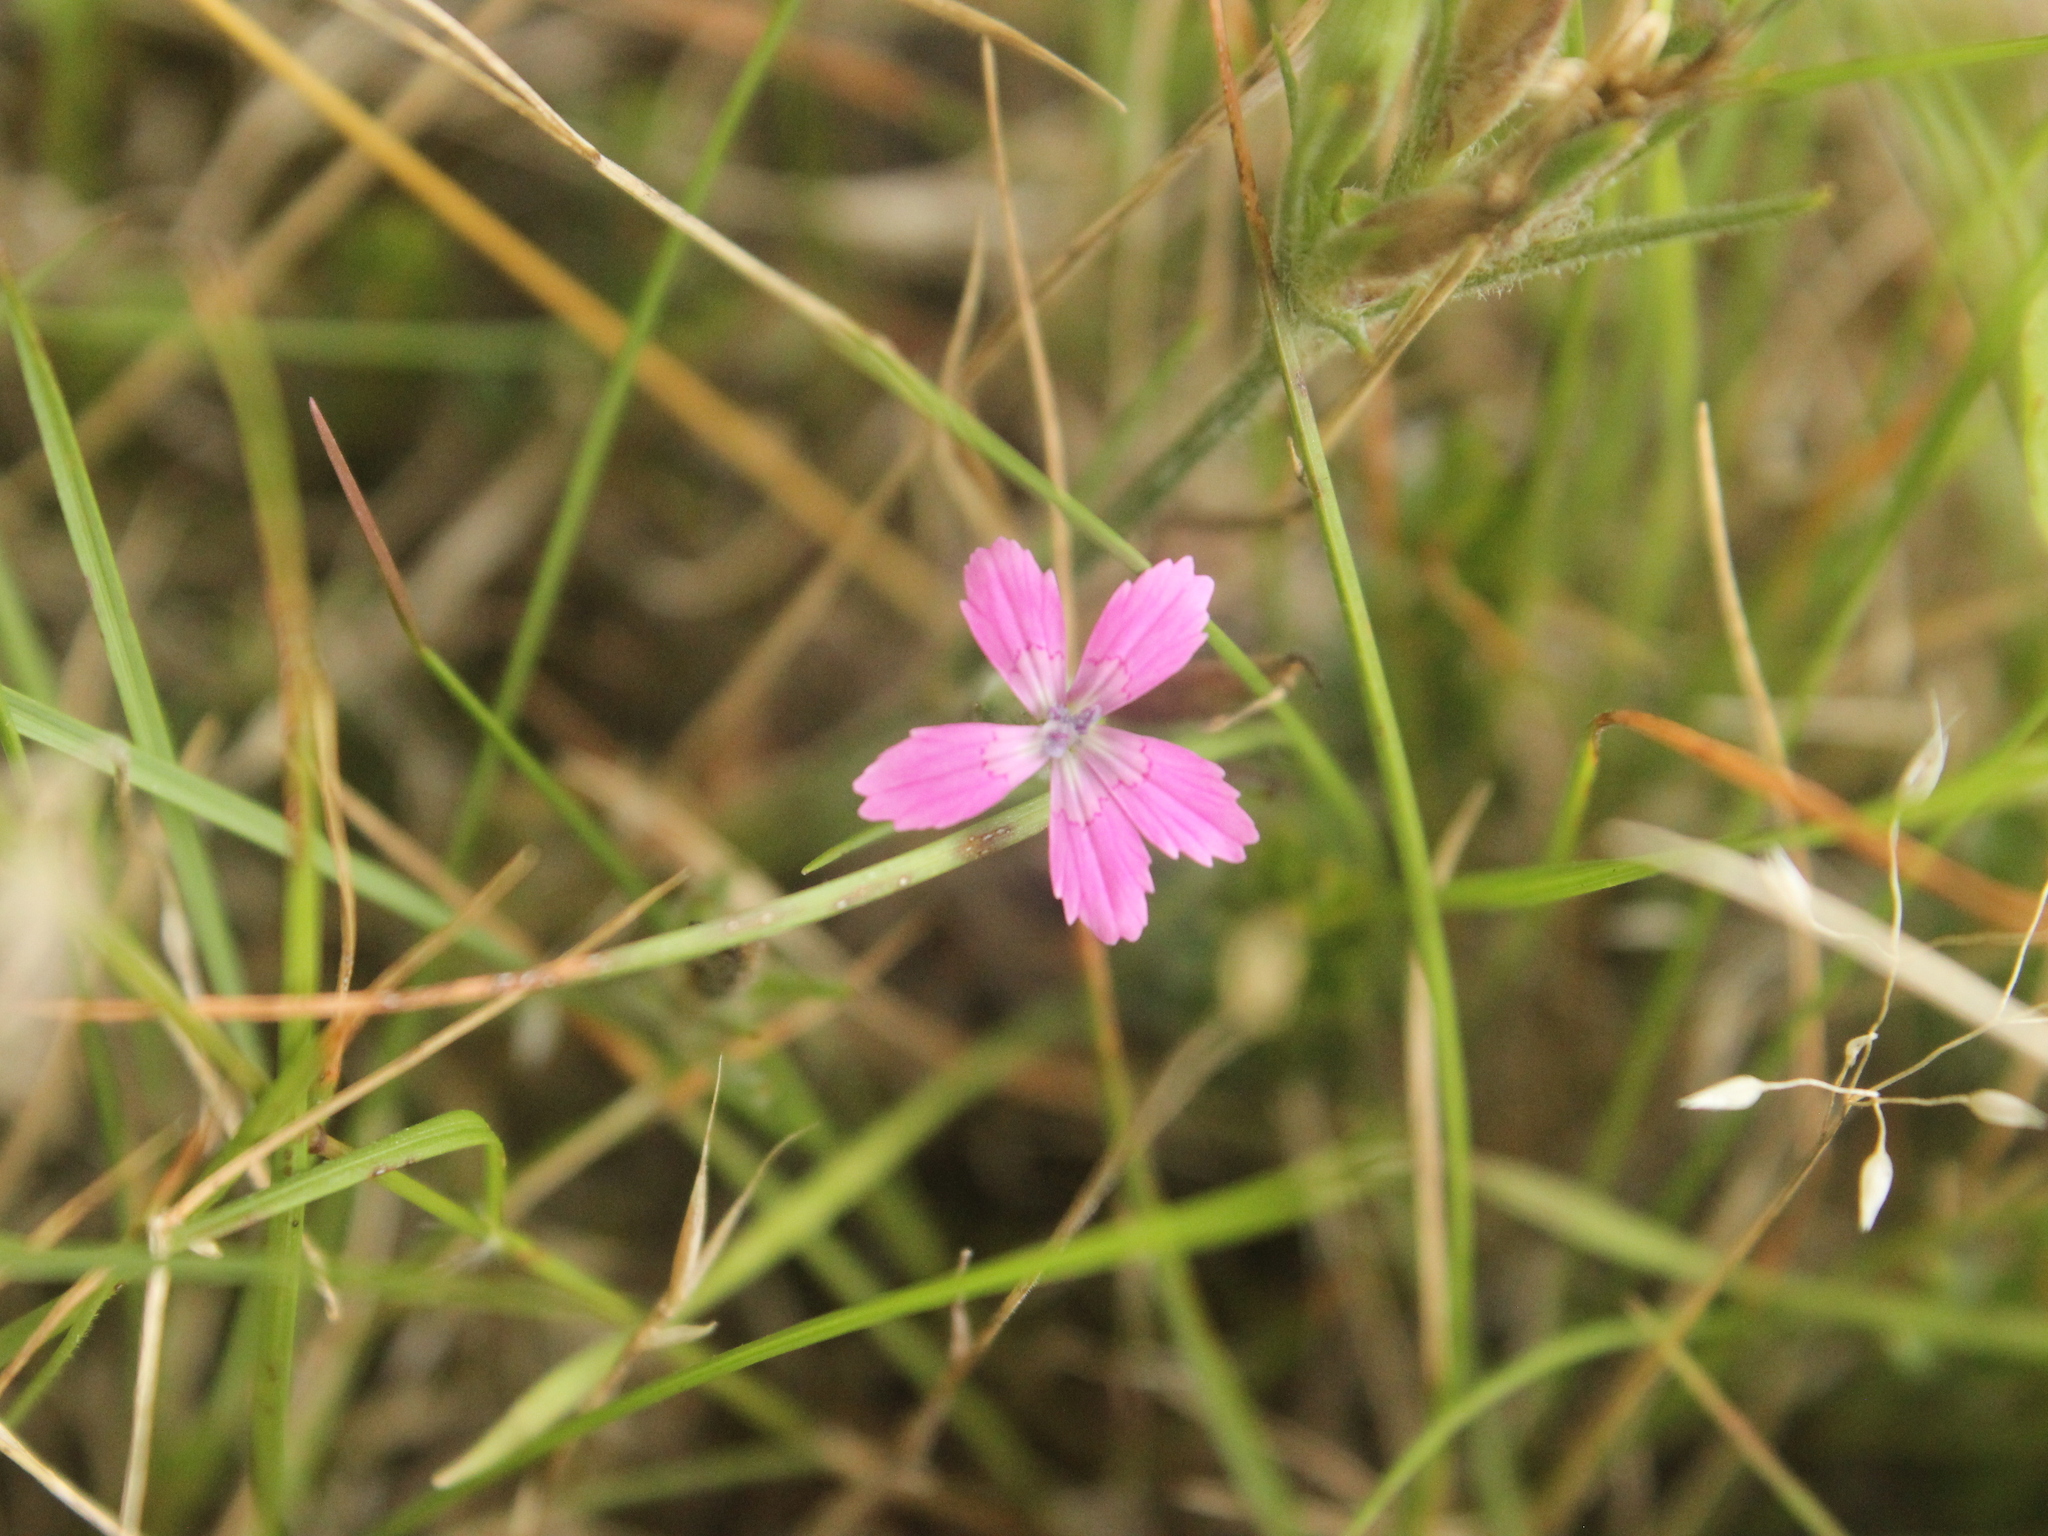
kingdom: Plantae
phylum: Tracheophyta
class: Magnoliopsida
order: Caryophyllales
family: Caryophyllaceae
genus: Dianthus
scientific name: Dianthus armeria
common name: Deptford pink
